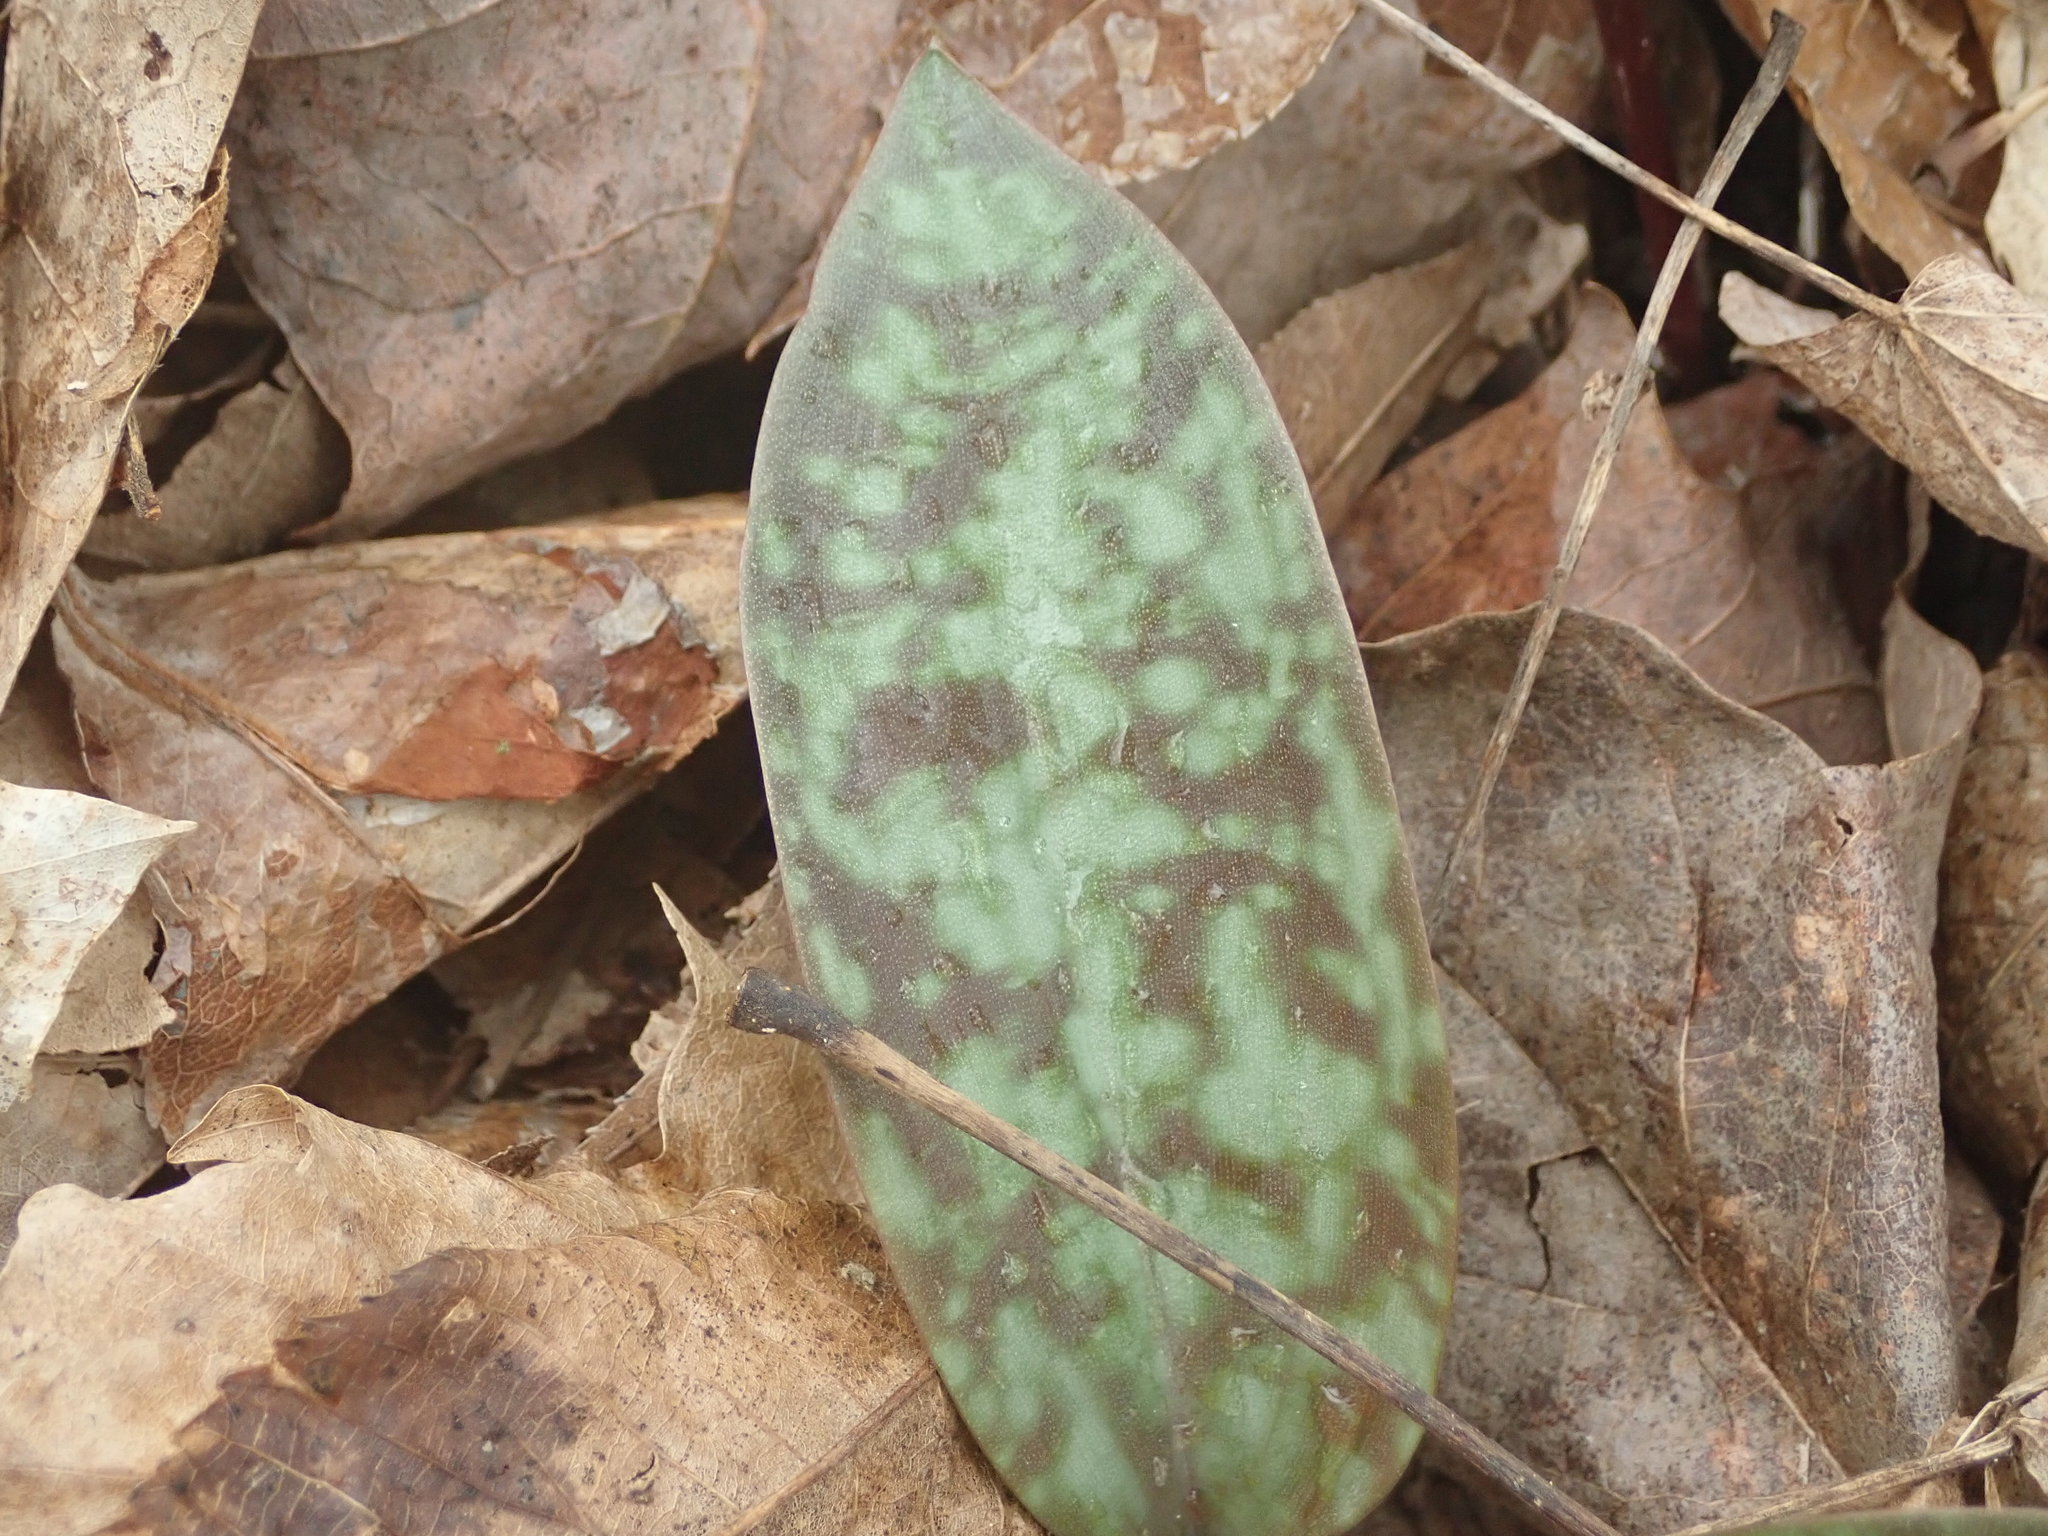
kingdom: Plantae
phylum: Tracheophyta
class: Liliopsida
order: Liliales
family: Liliaceae
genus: Erythronium
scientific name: Erythronium
